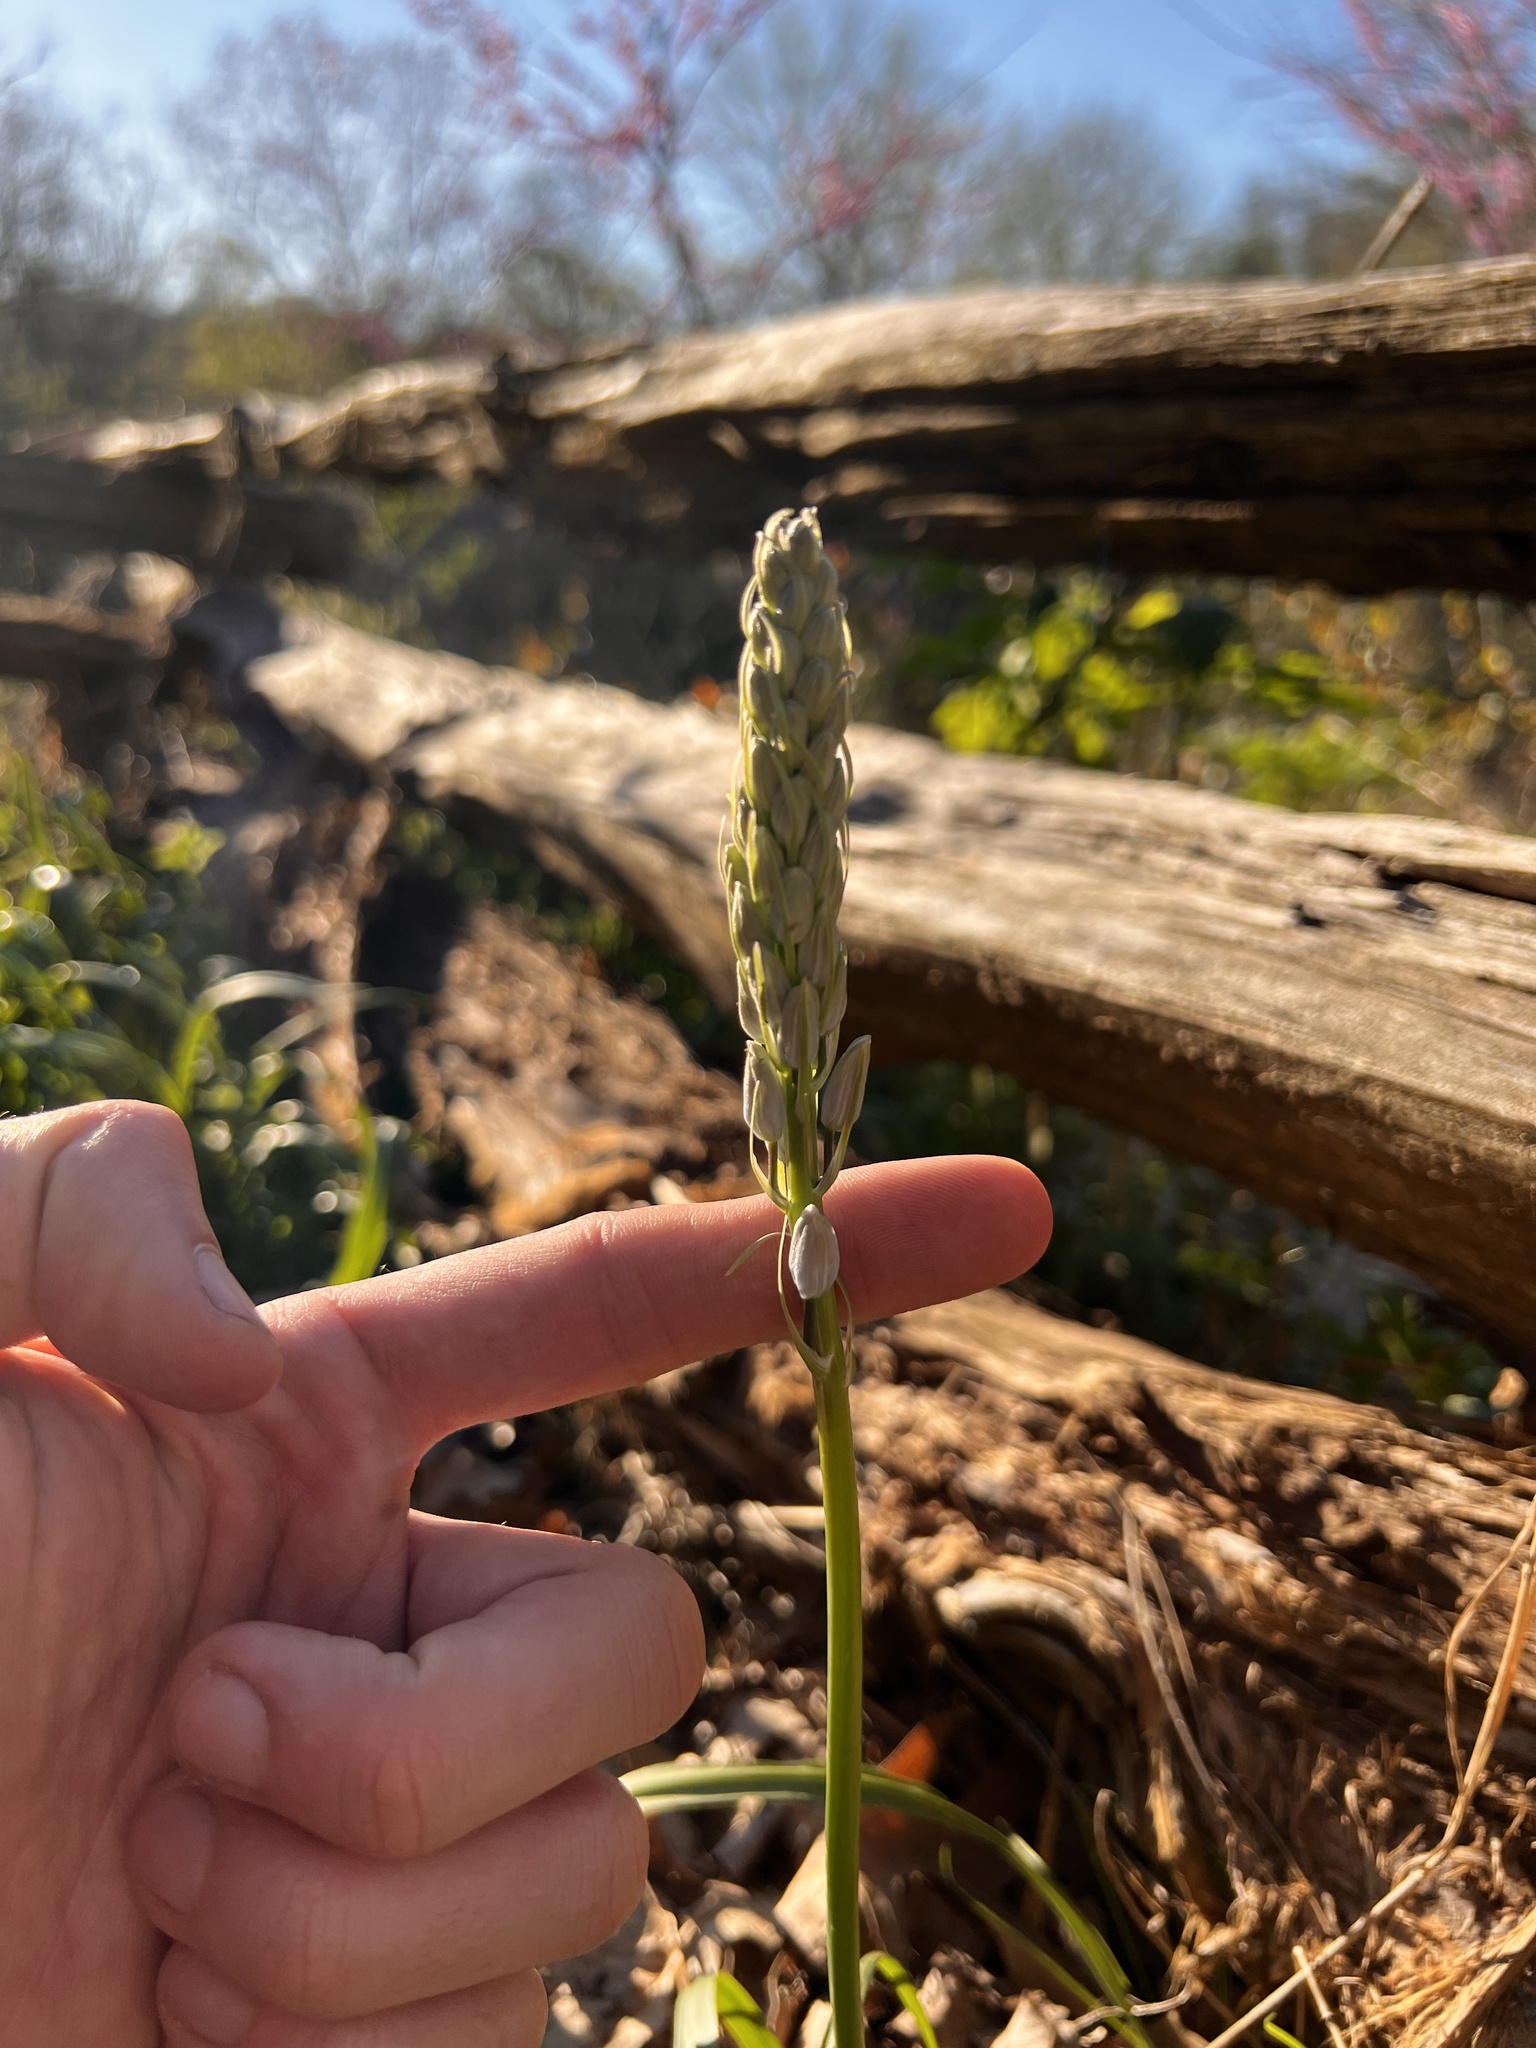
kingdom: Plantae
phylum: Tracheophyta
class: Liliopsida
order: Asparagales
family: Asparagaceae
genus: Camassia
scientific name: Camassia scilloides
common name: Wild hyacinth
